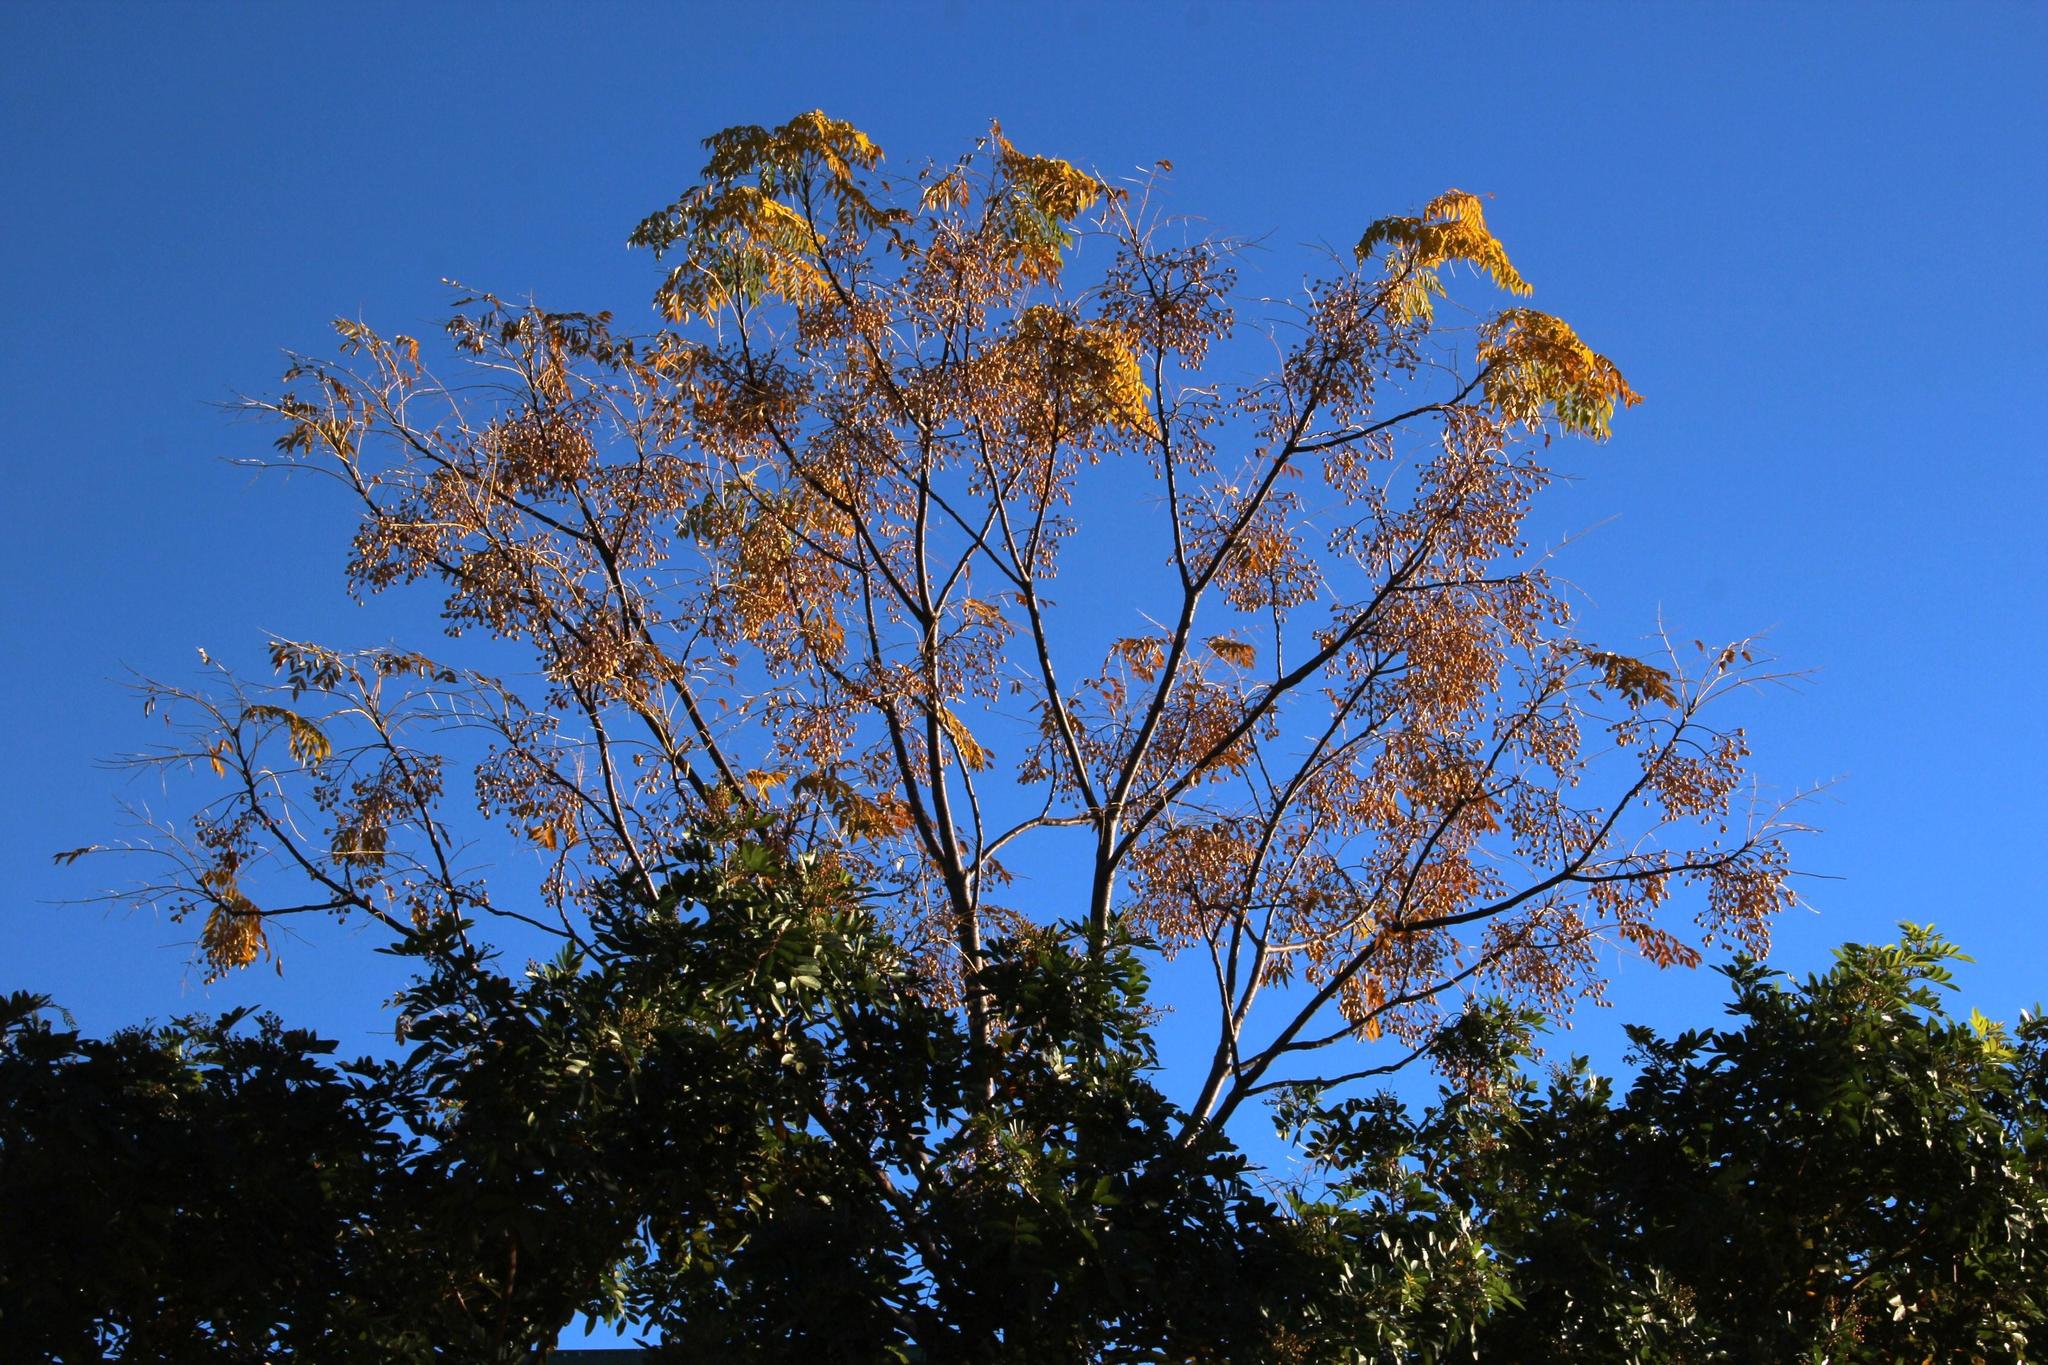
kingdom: Plantae
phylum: Tracheophyta
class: Magnoliopsida
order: Sapindales
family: Meliaceae
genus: Melia
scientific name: Melia azedarach
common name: Chinaberrytree
